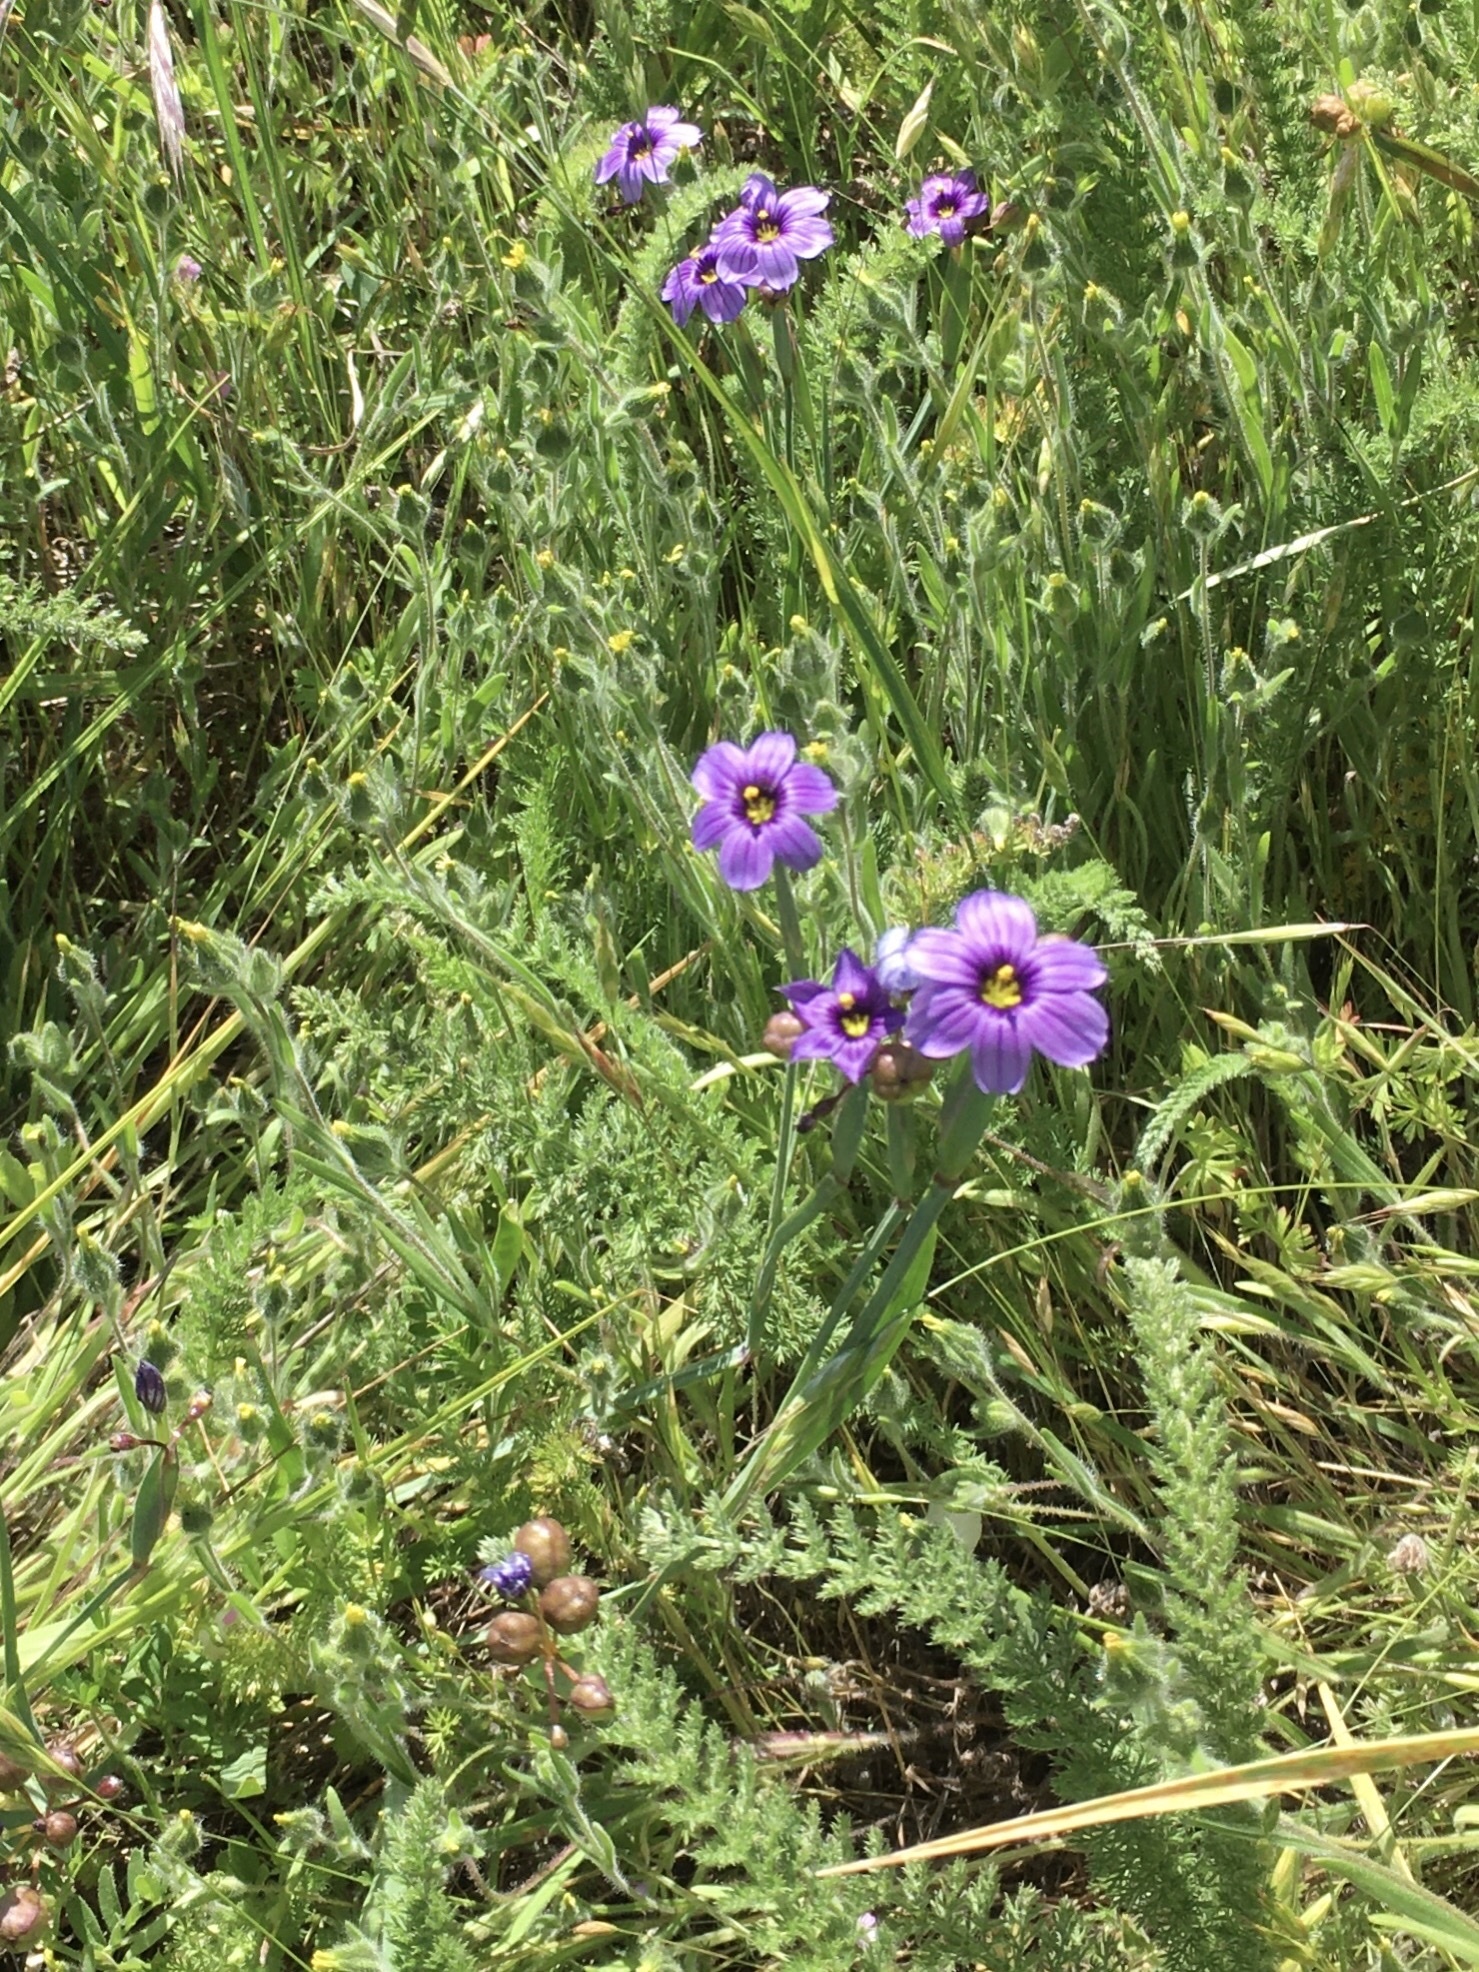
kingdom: Plantae
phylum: Tracheophyta
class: Liliopsida
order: Asparagales
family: Iridaceae
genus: Sisyrinchium
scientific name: Sisyrinchium bellum
